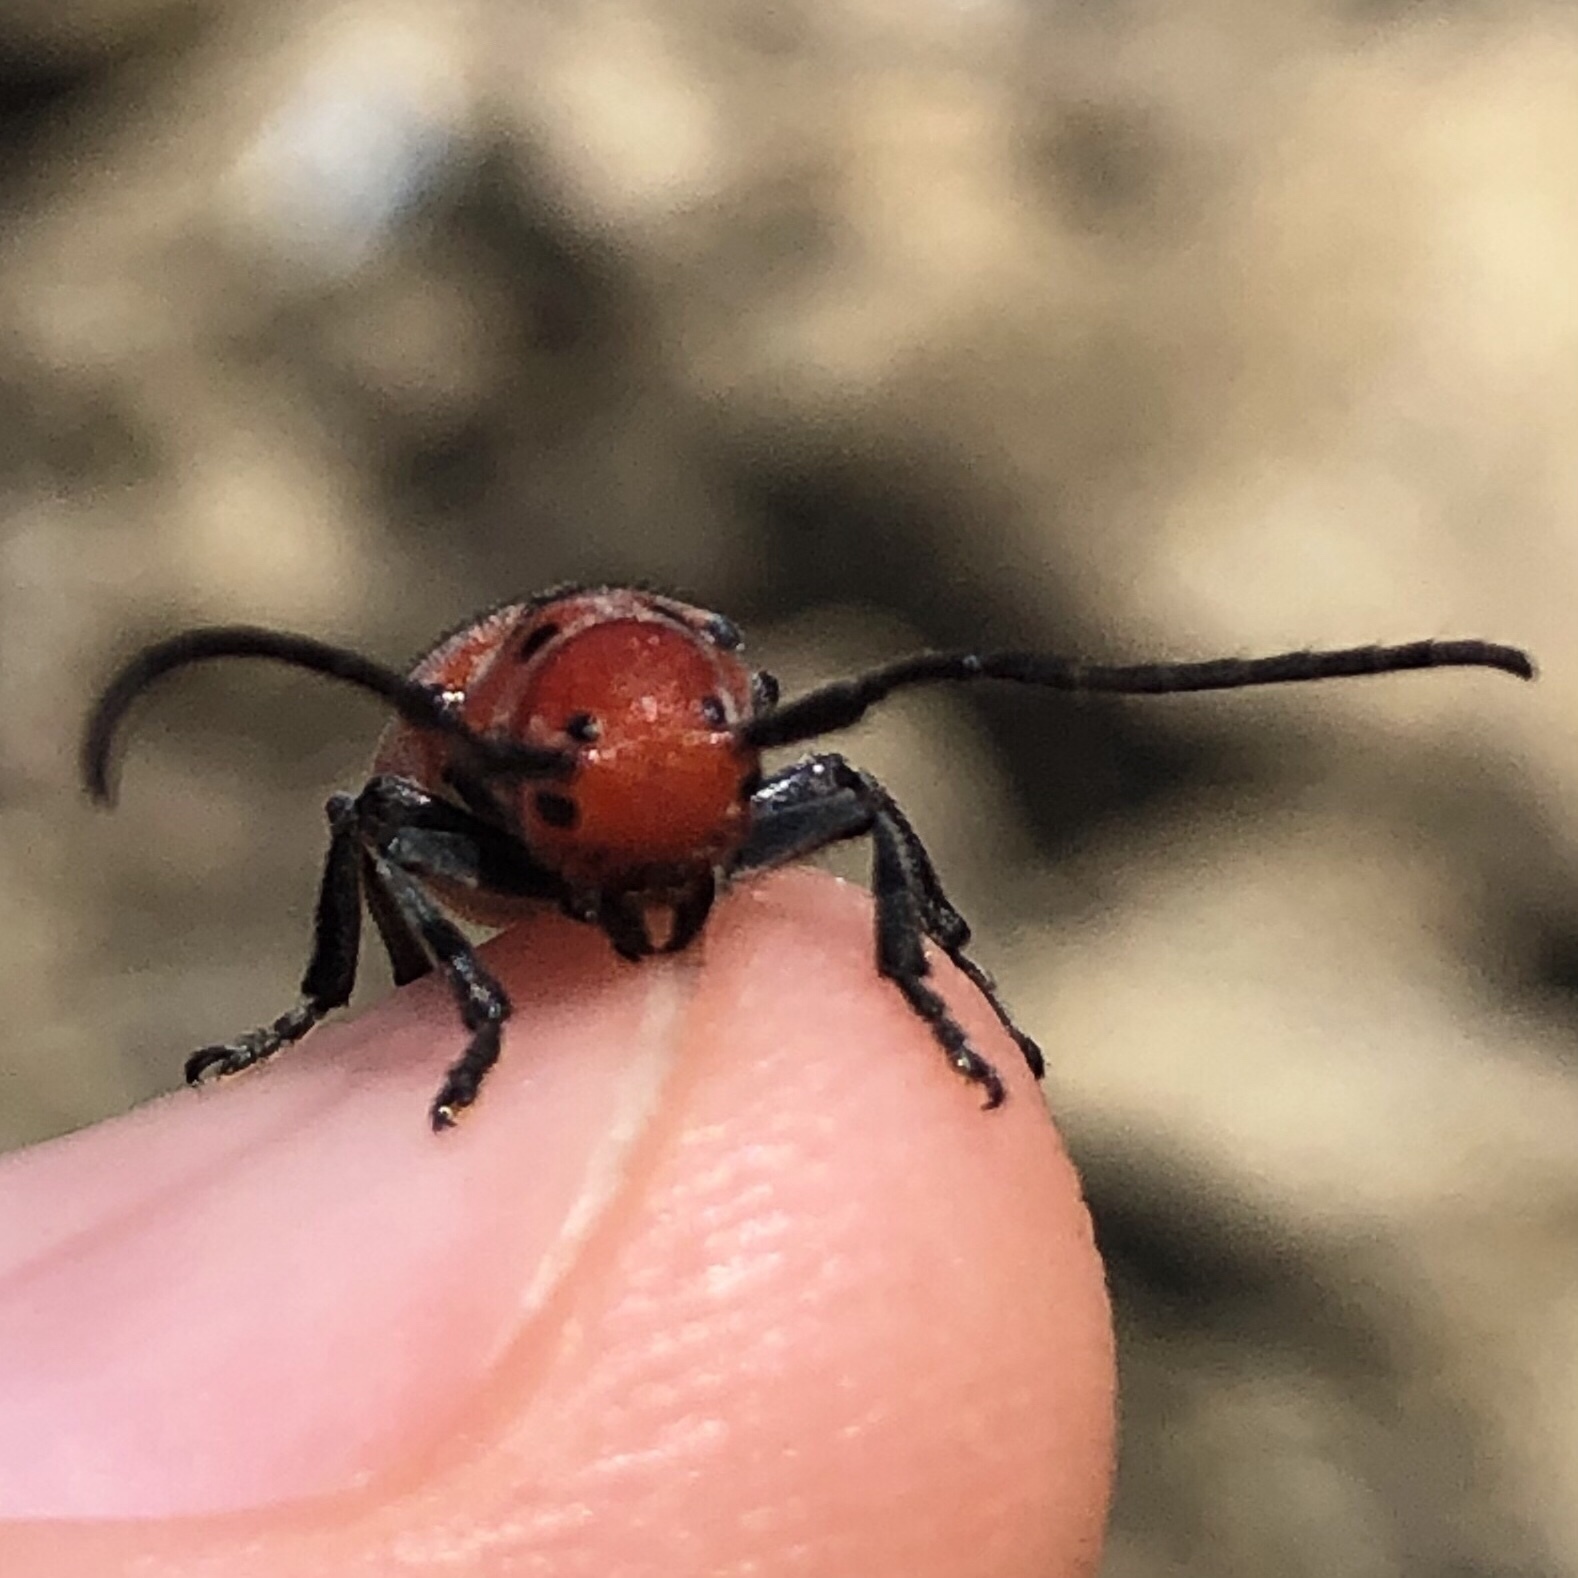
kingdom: Animalia
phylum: Arthropoda
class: Insecta
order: Coleoptera
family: Cerambycidae
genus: Tetraopes
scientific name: Tetraopes tetrophthalmus
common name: Red milkweed beetle
